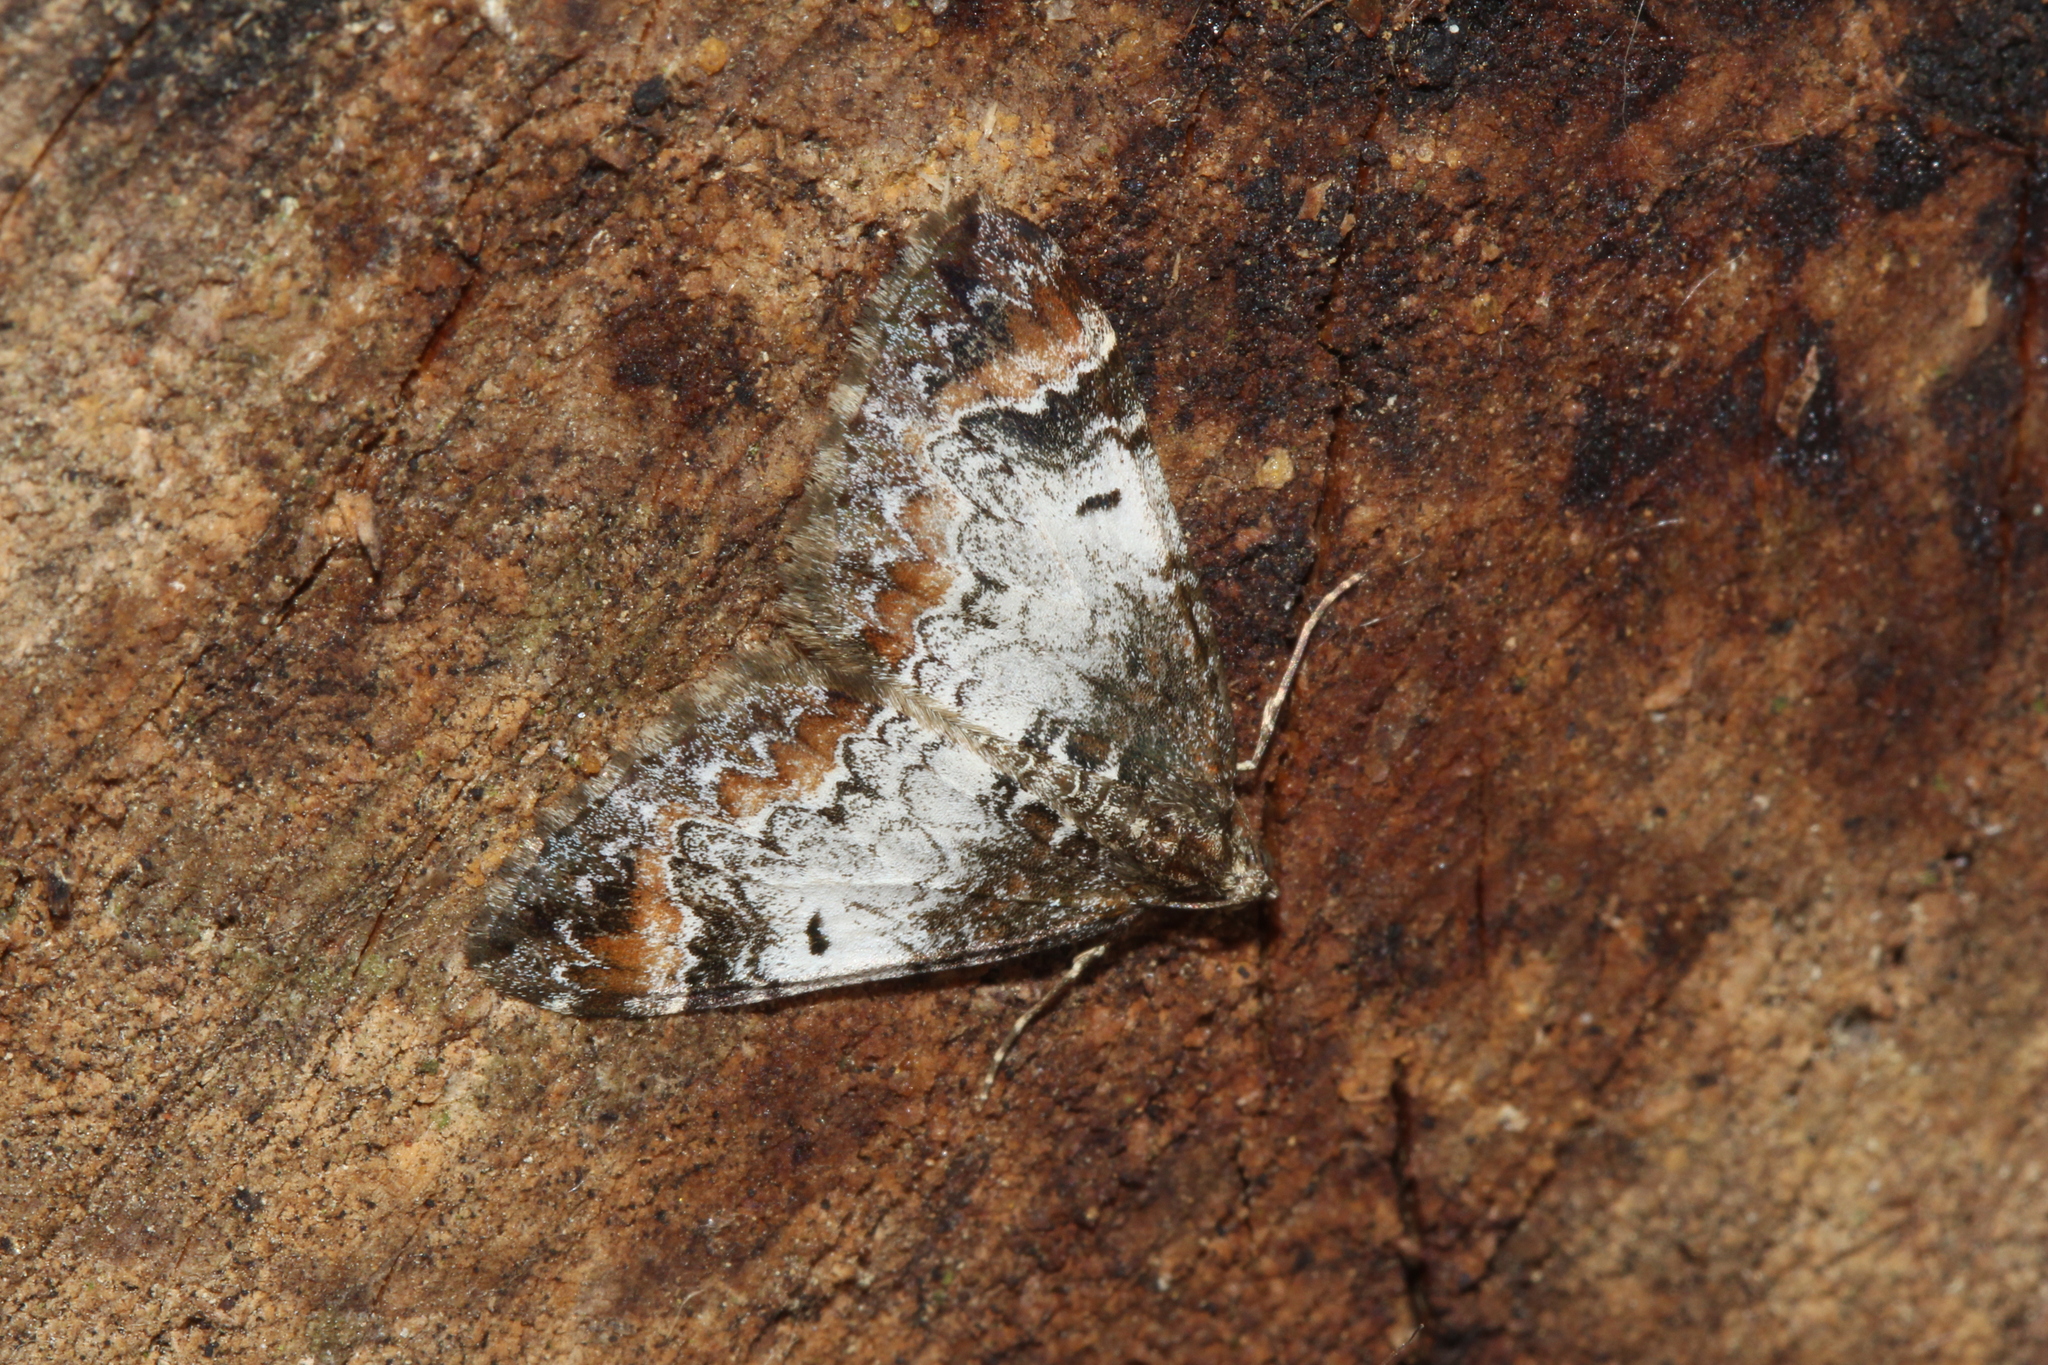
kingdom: Animalia
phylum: Arthropoda
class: Insecta
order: Lepidoptera
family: Geometridae
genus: Dysstroma
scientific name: Dysstroma truncata
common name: Common marbled carpet
